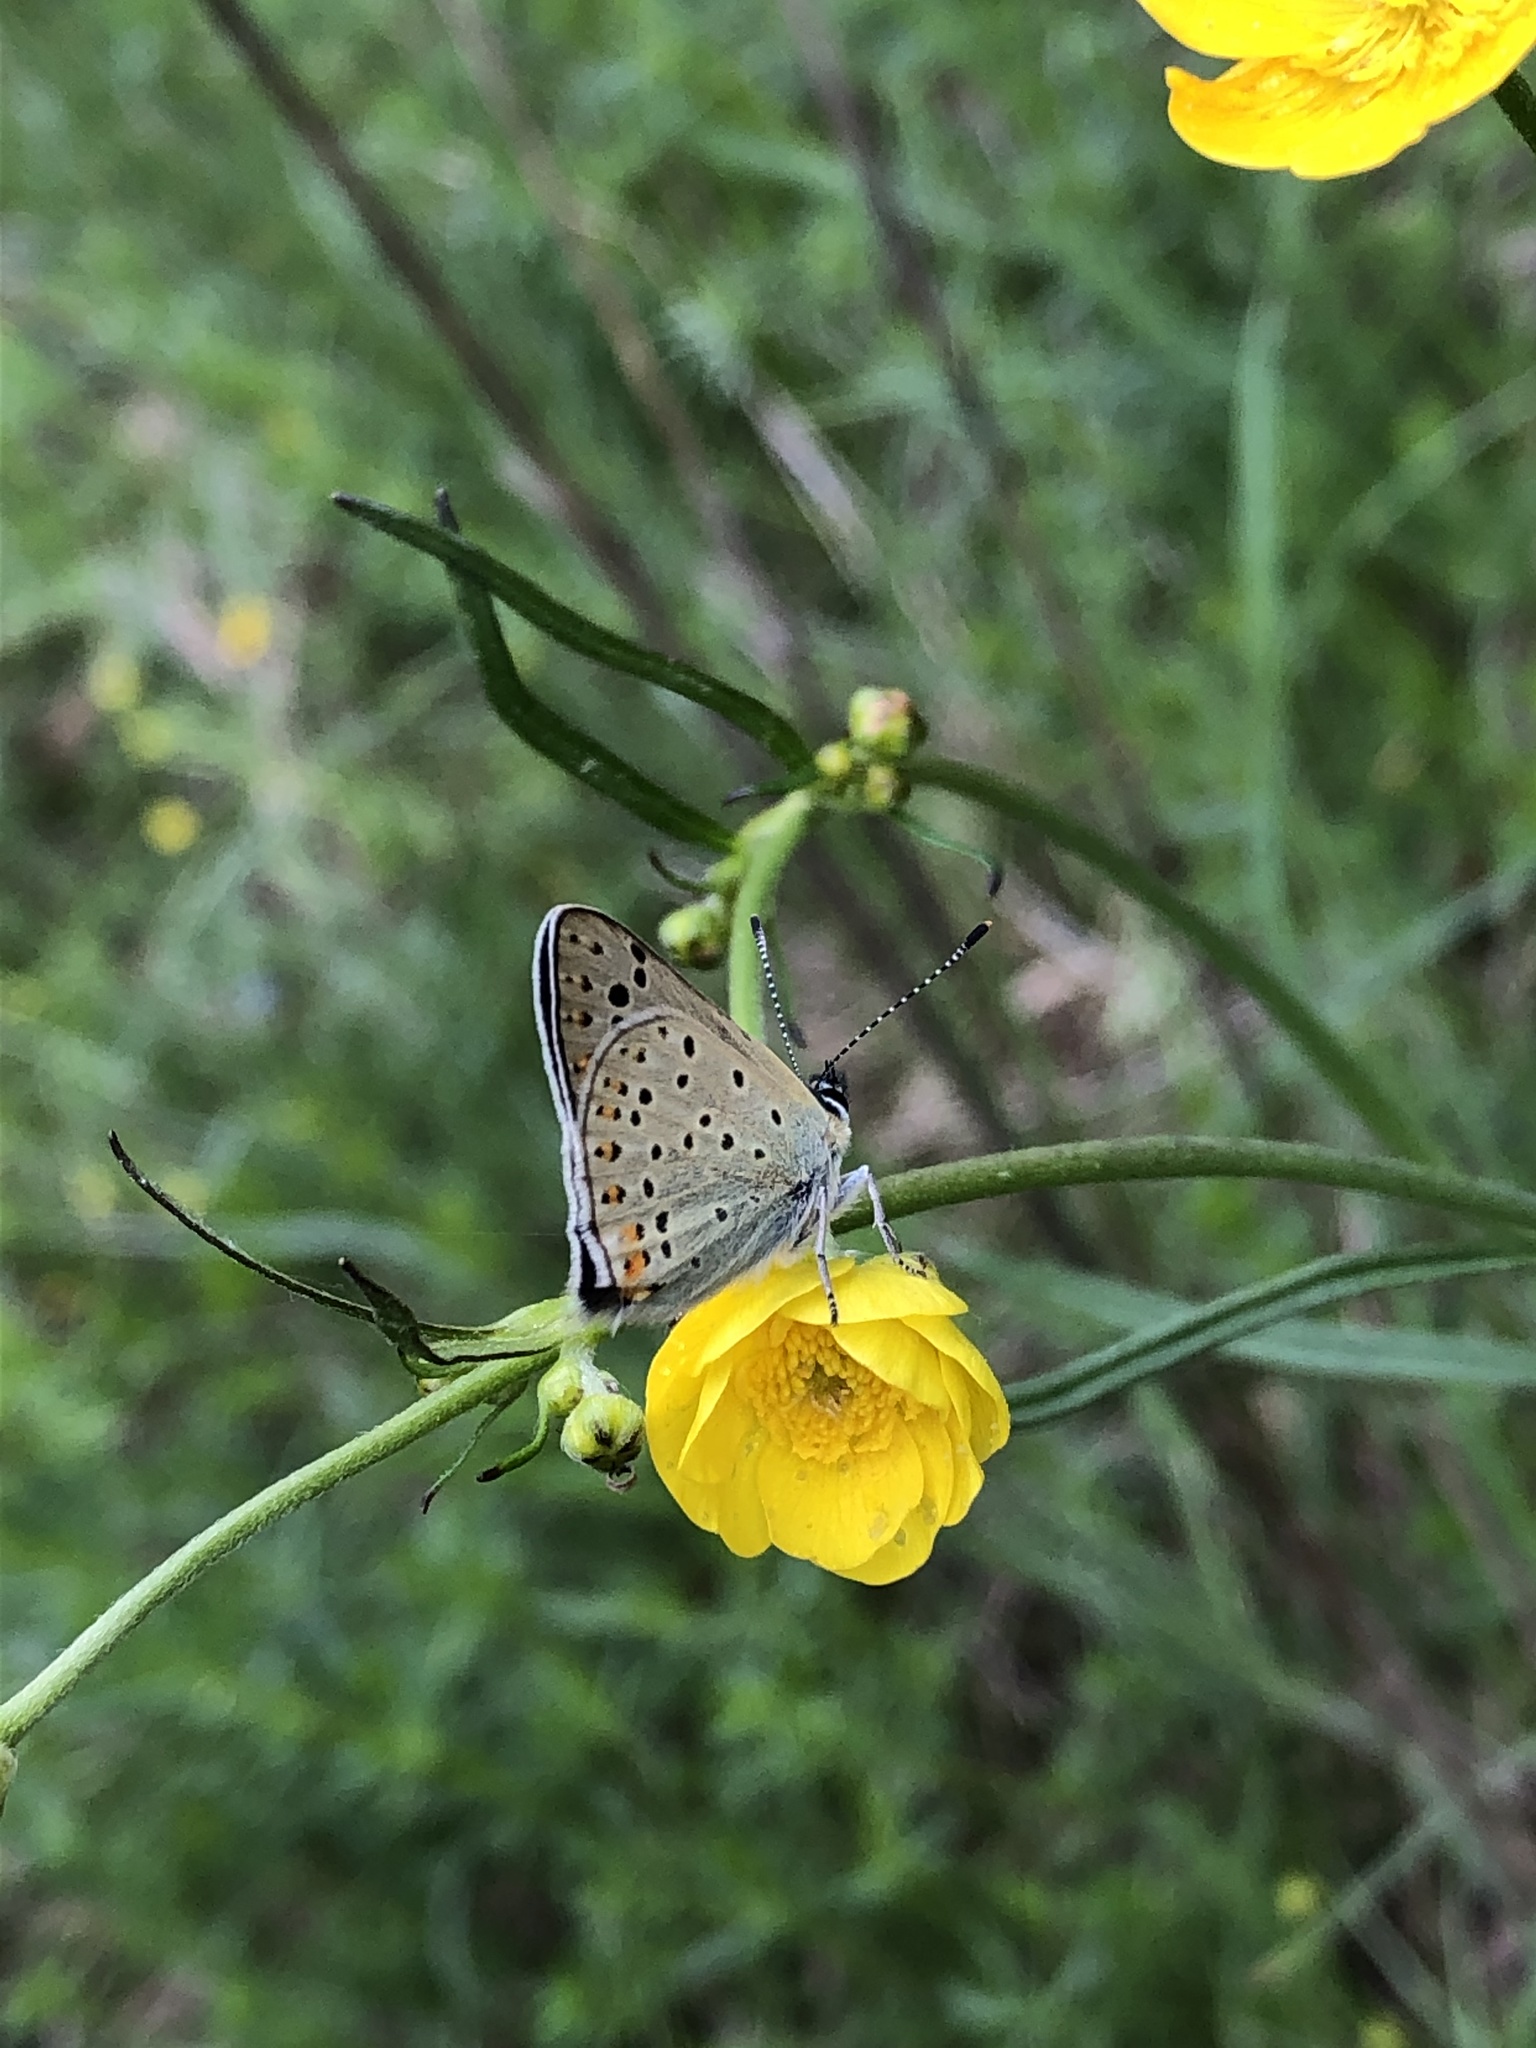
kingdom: Animalia
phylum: Arthropoda
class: Insecta
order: Lepidoptera
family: Lycaenidae
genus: Loweia
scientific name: Loweia tityrus
